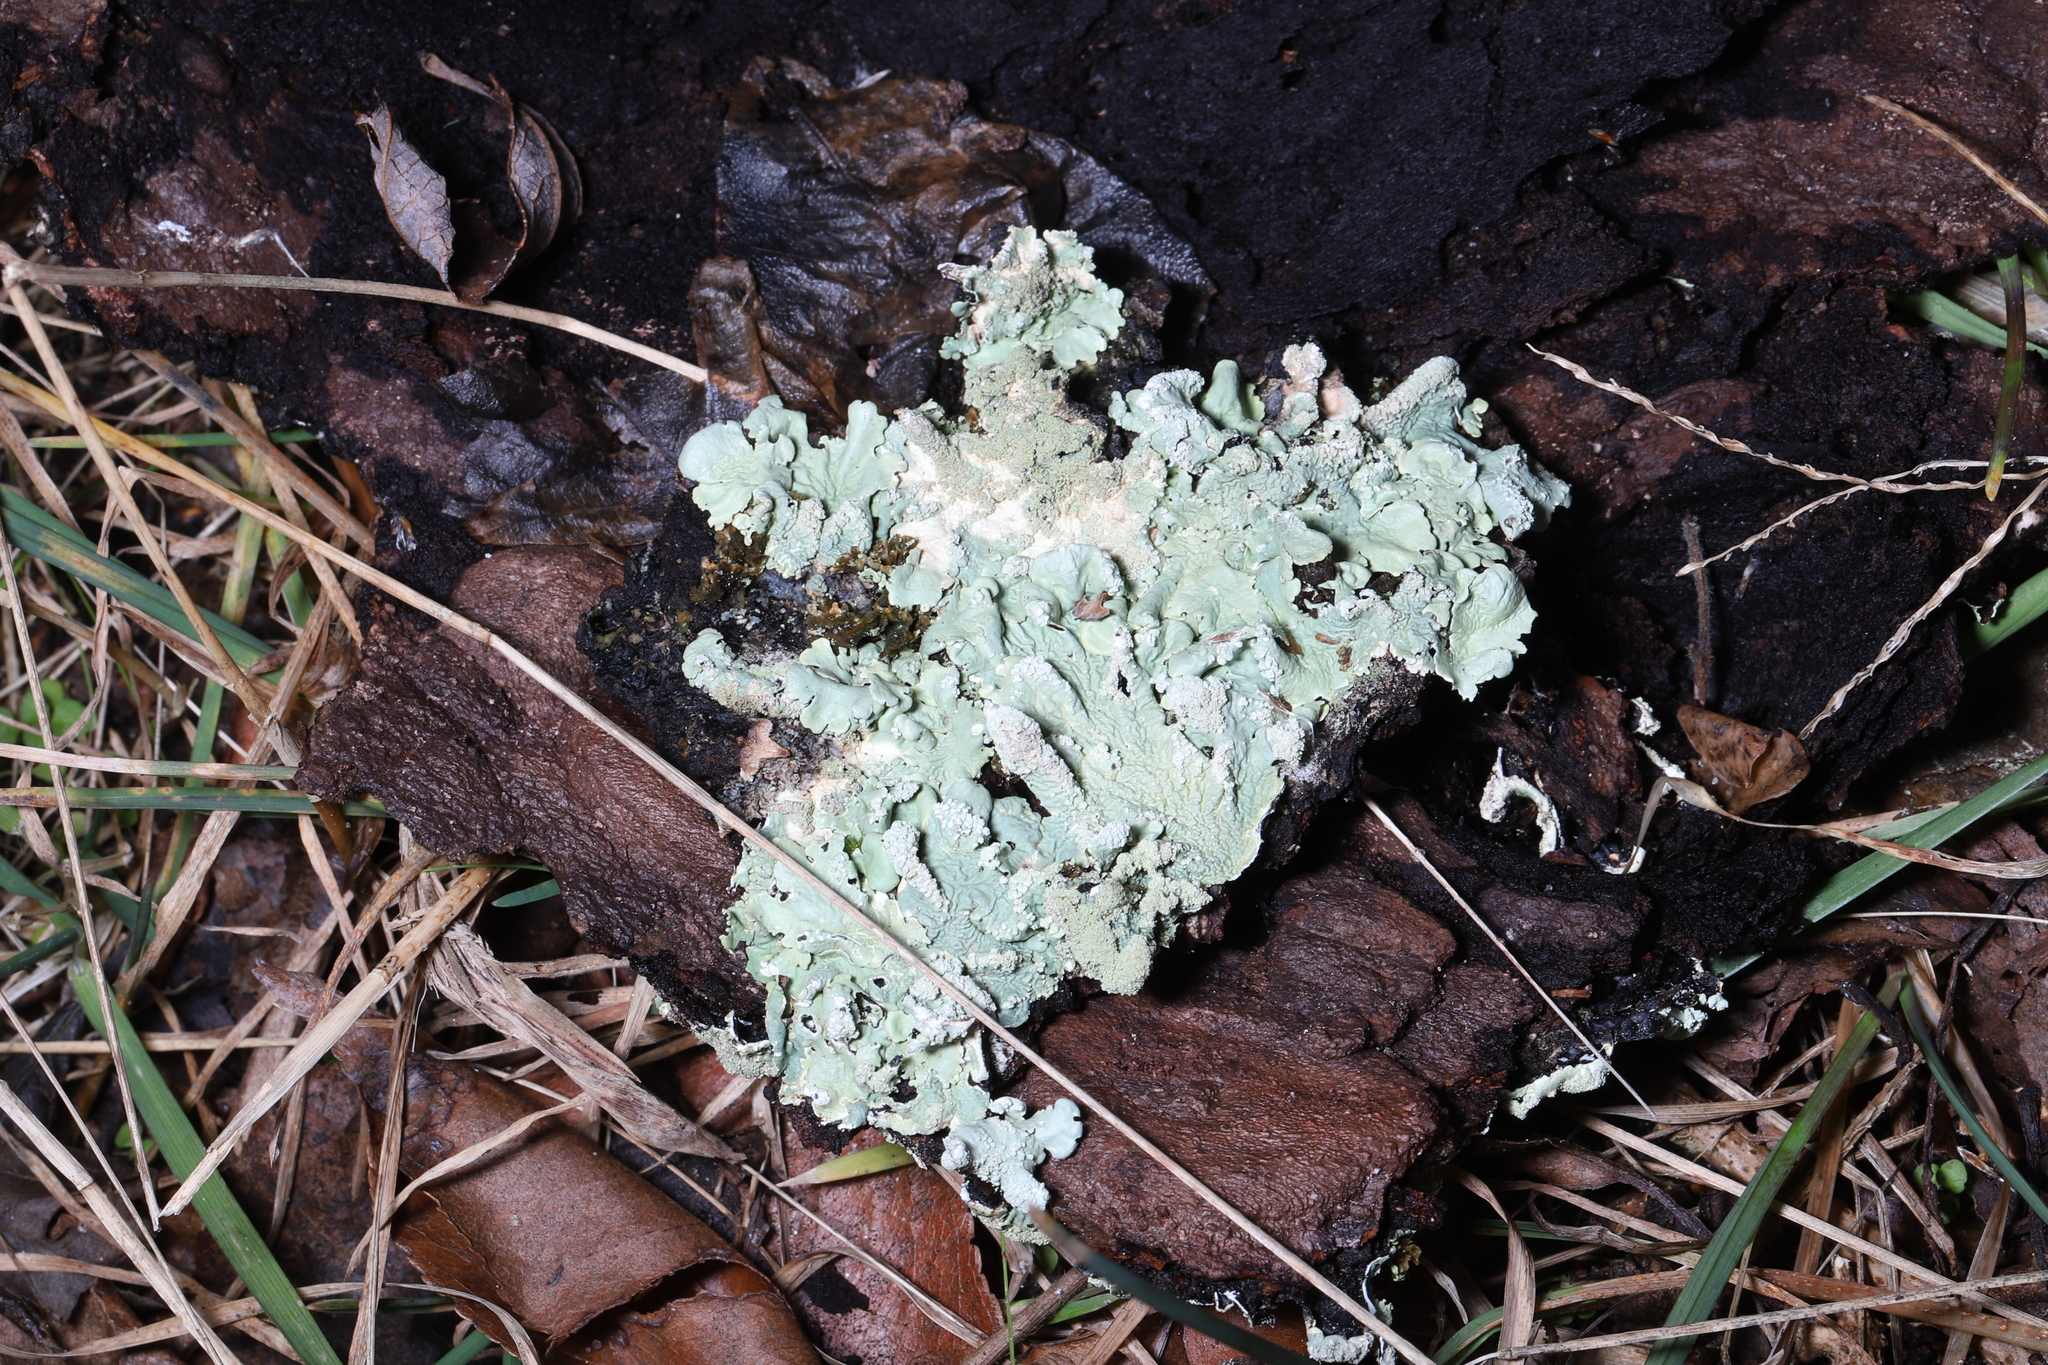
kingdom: Fungi
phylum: Ascomycota
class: Lecanoromycetes
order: Lecanorales
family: Parmeliaceae
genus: Flavoparmelia
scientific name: Flavoparmelia caperata
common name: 40-mile per hour lichen
